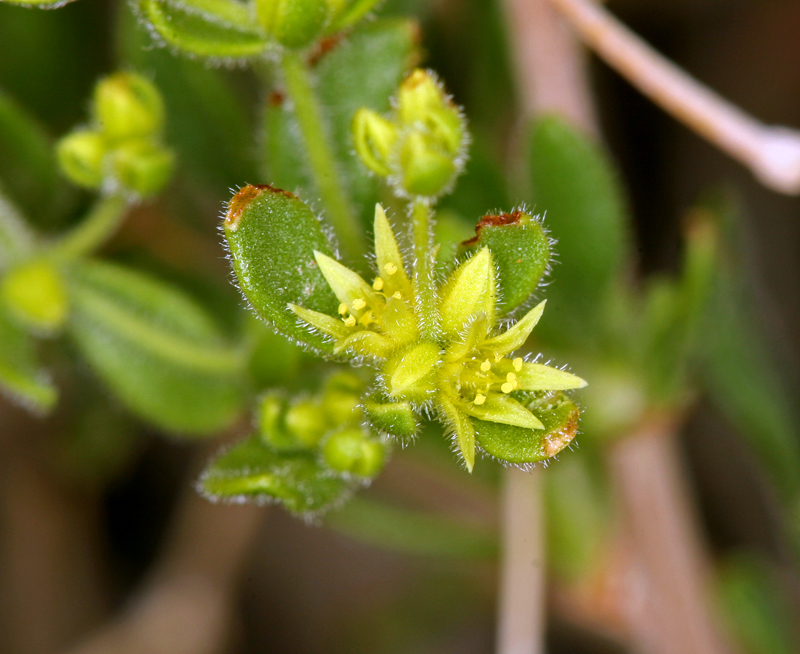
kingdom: Plantae
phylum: Tracheophyta
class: Magnoliopsida
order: Caryophyllales
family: Polygonaceae
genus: Dedeckera
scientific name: Dedeckera eurekensis
